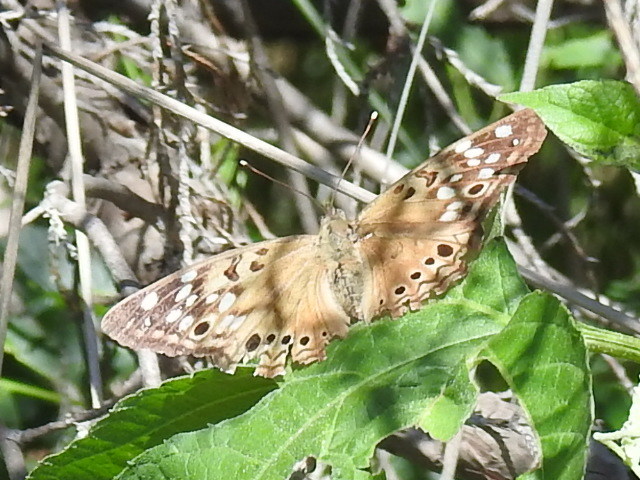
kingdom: Animalia
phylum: Arthropoda
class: Insecta
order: Lepidoptera
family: Nymphalidae
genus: Asterocampa
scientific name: Asterocampa celtis
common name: Hackberry emperor
